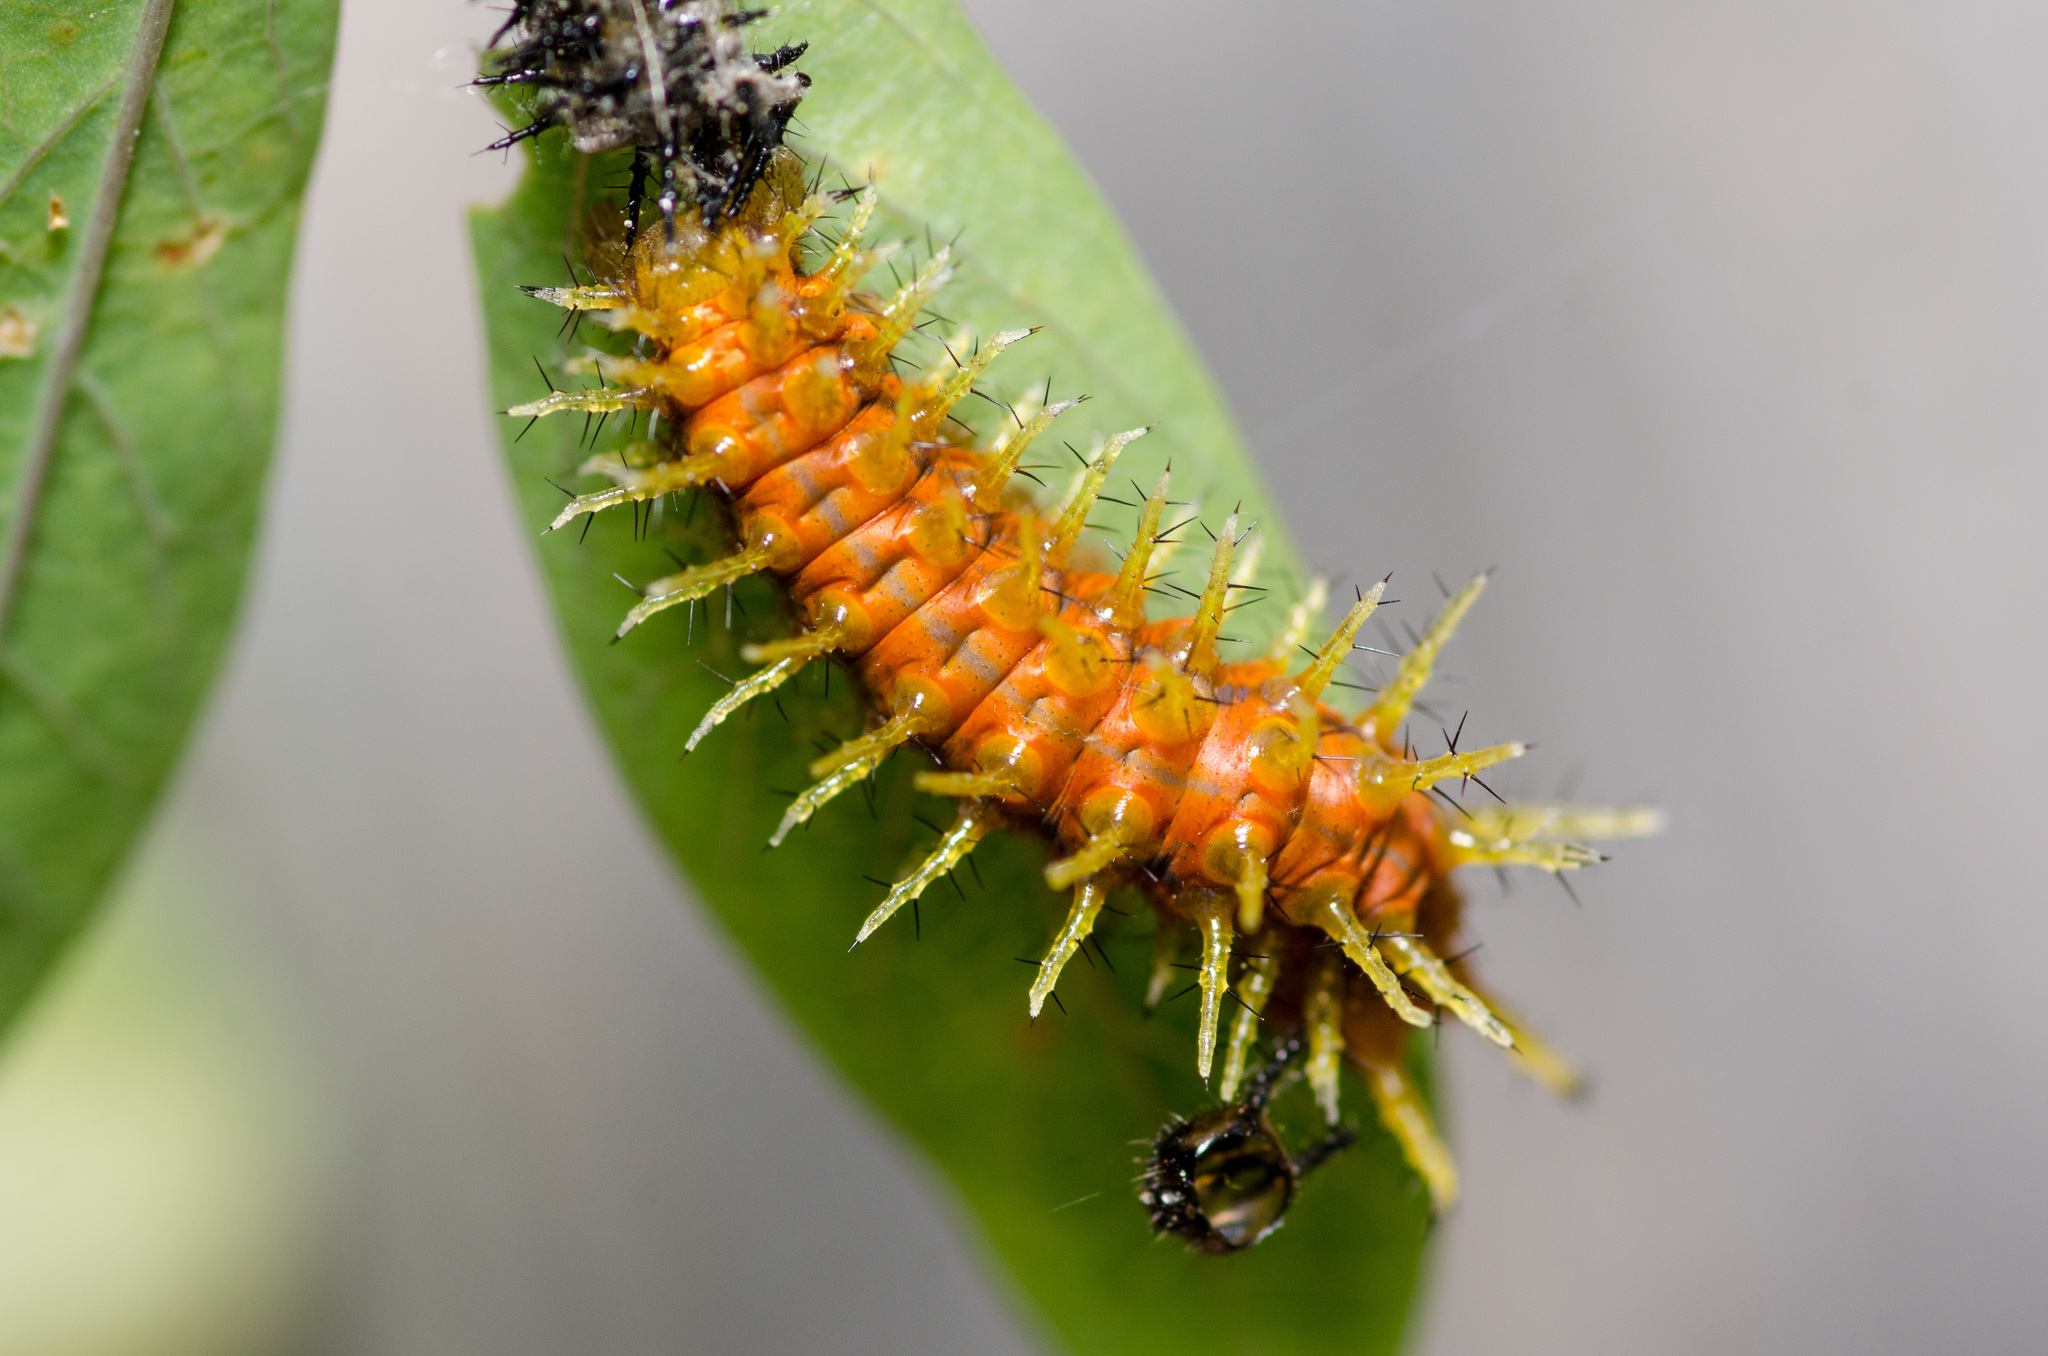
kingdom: Animalia
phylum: Arthropoda
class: Insecta
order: Lepidoptera
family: Nymphalidae
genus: Dione
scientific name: Dione vanillae
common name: Gulf fritillary
